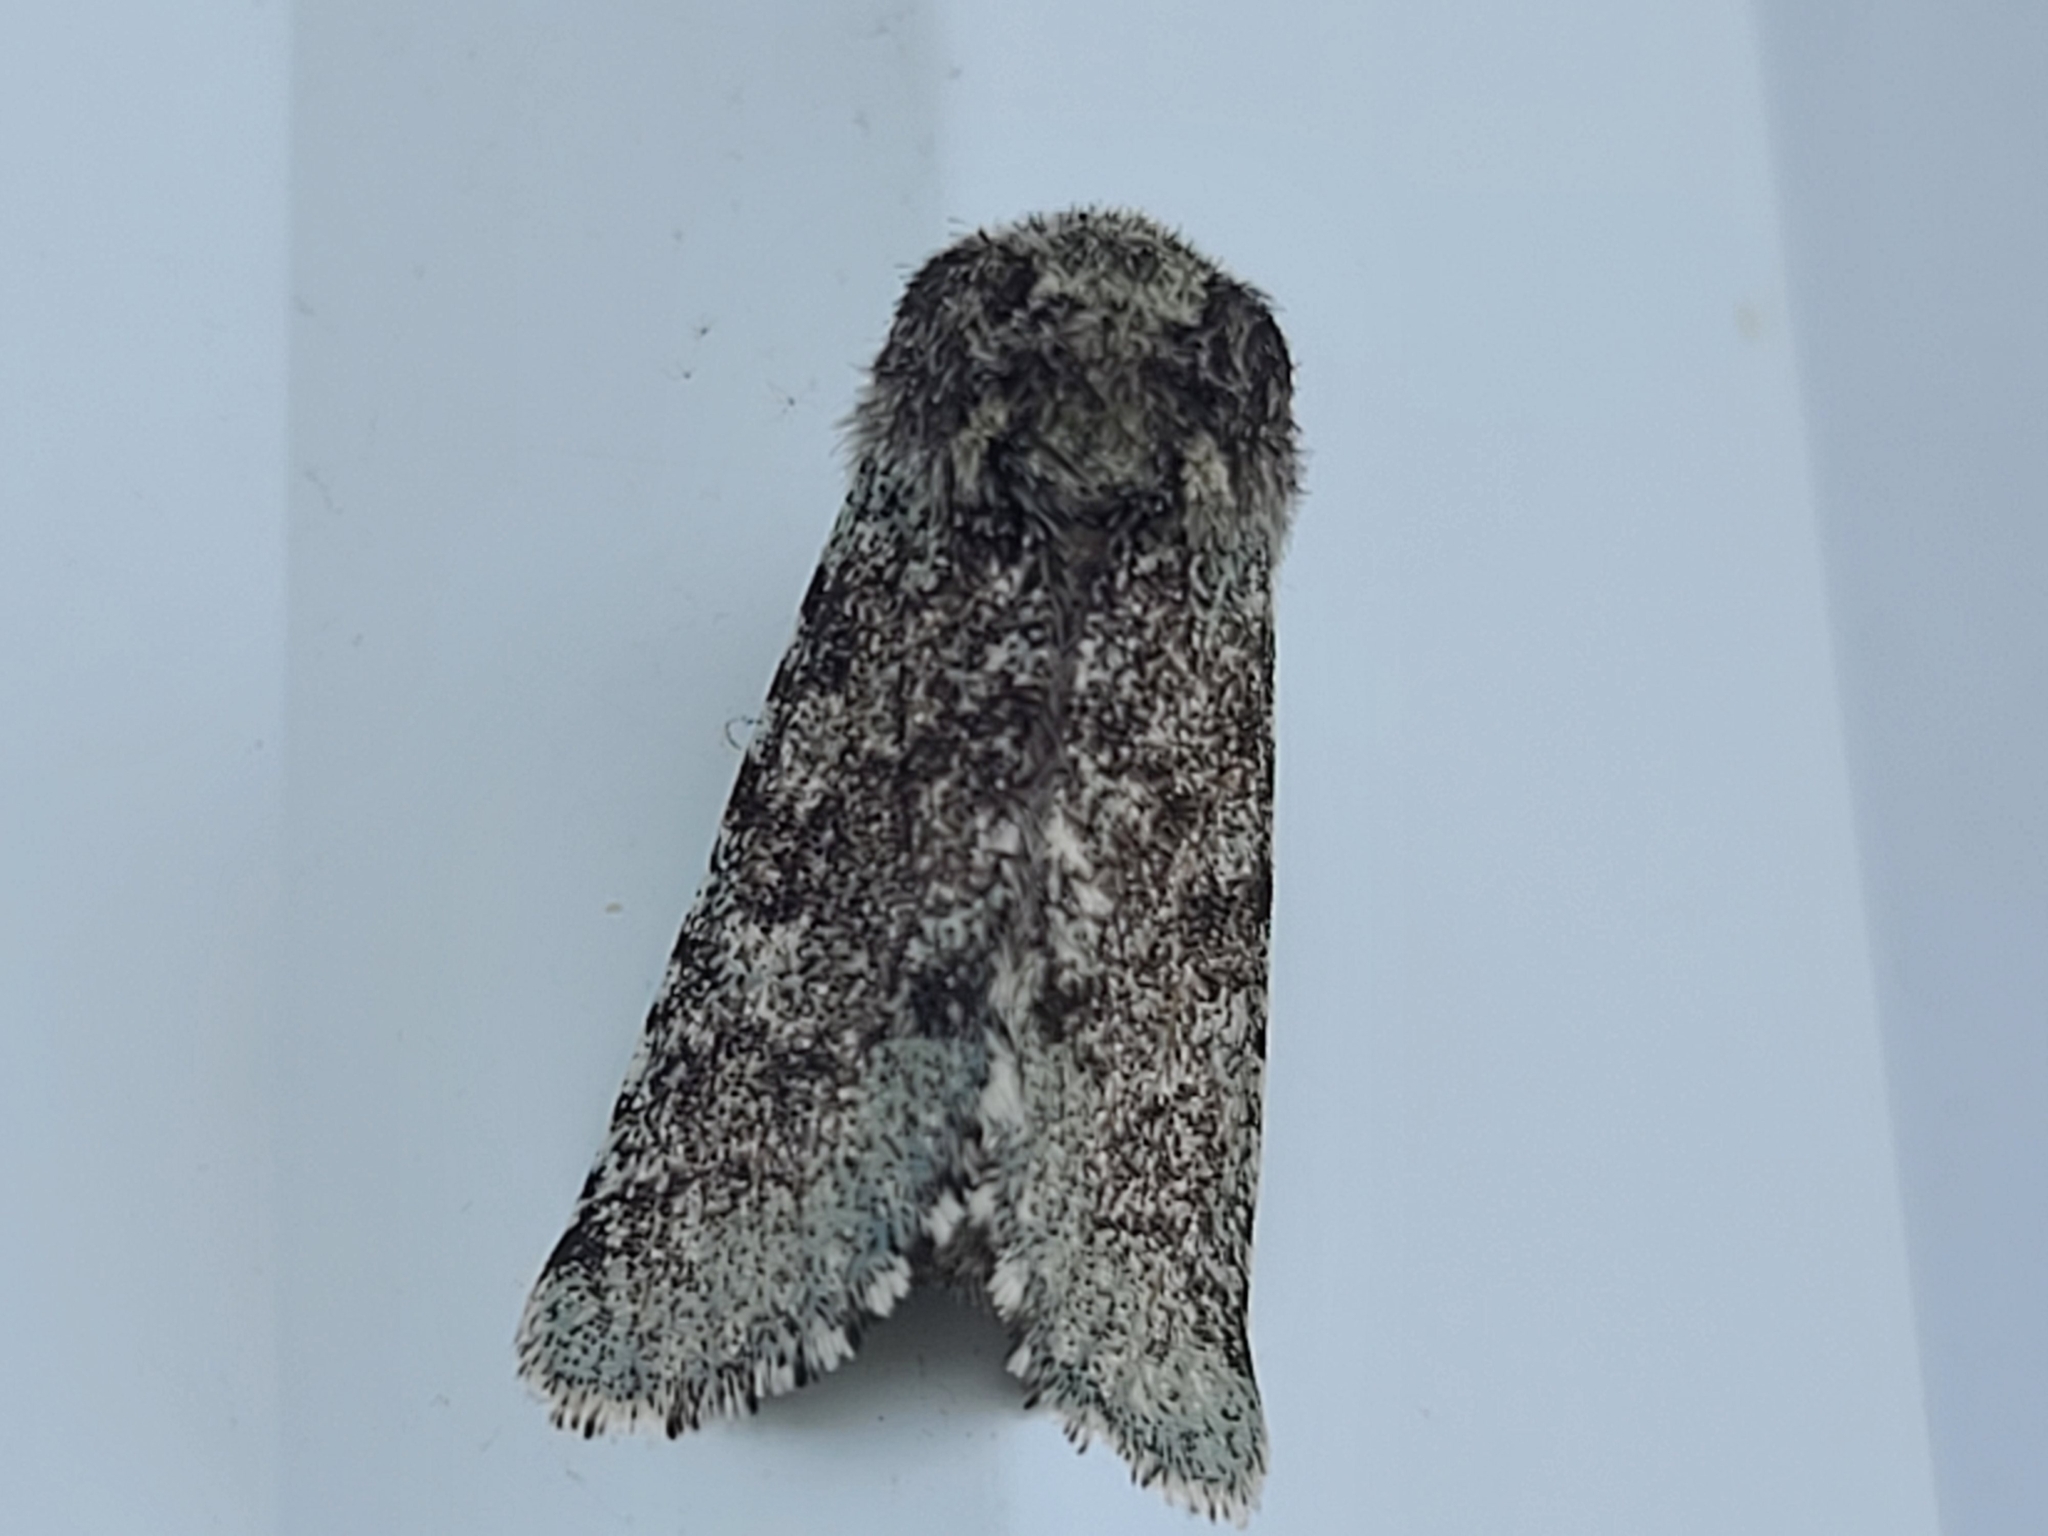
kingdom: Animalia
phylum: Arthropoda
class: Insecta
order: Lepidoptera
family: Noctuidae
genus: Feralia
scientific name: Feralia major
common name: Major sallow
